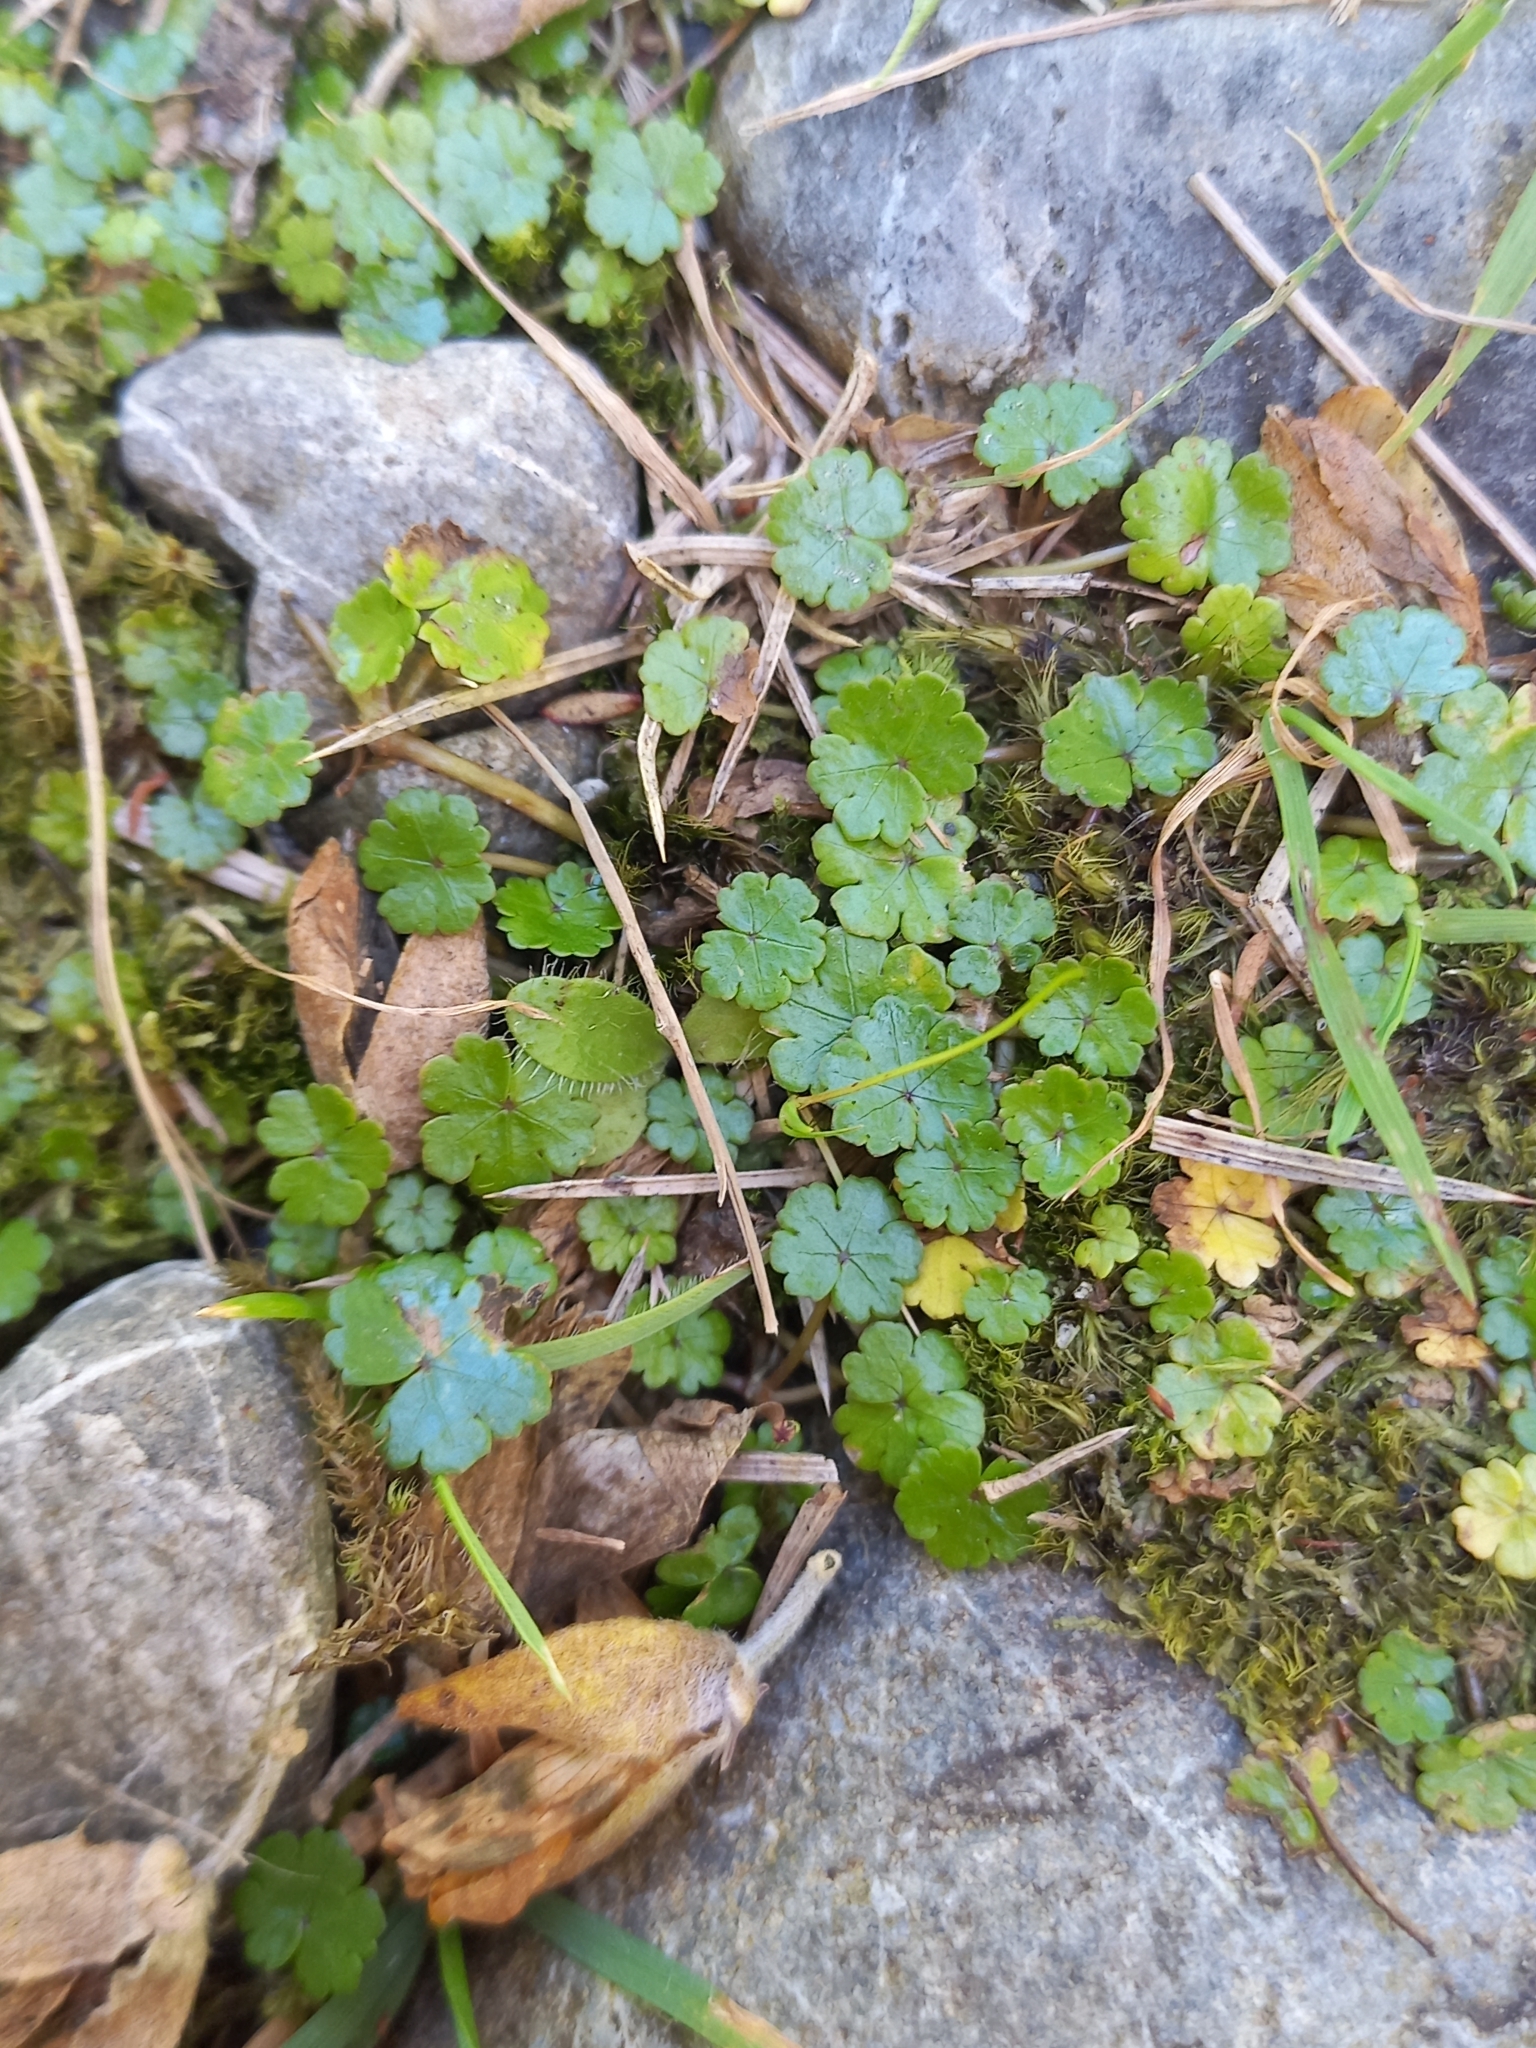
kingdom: Plantae
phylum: Tracheophyta
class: Magnoliopsida
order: Apiales
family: Araliaceae
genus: Hydrocotyle
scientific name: Hydrocotyle microphylla
